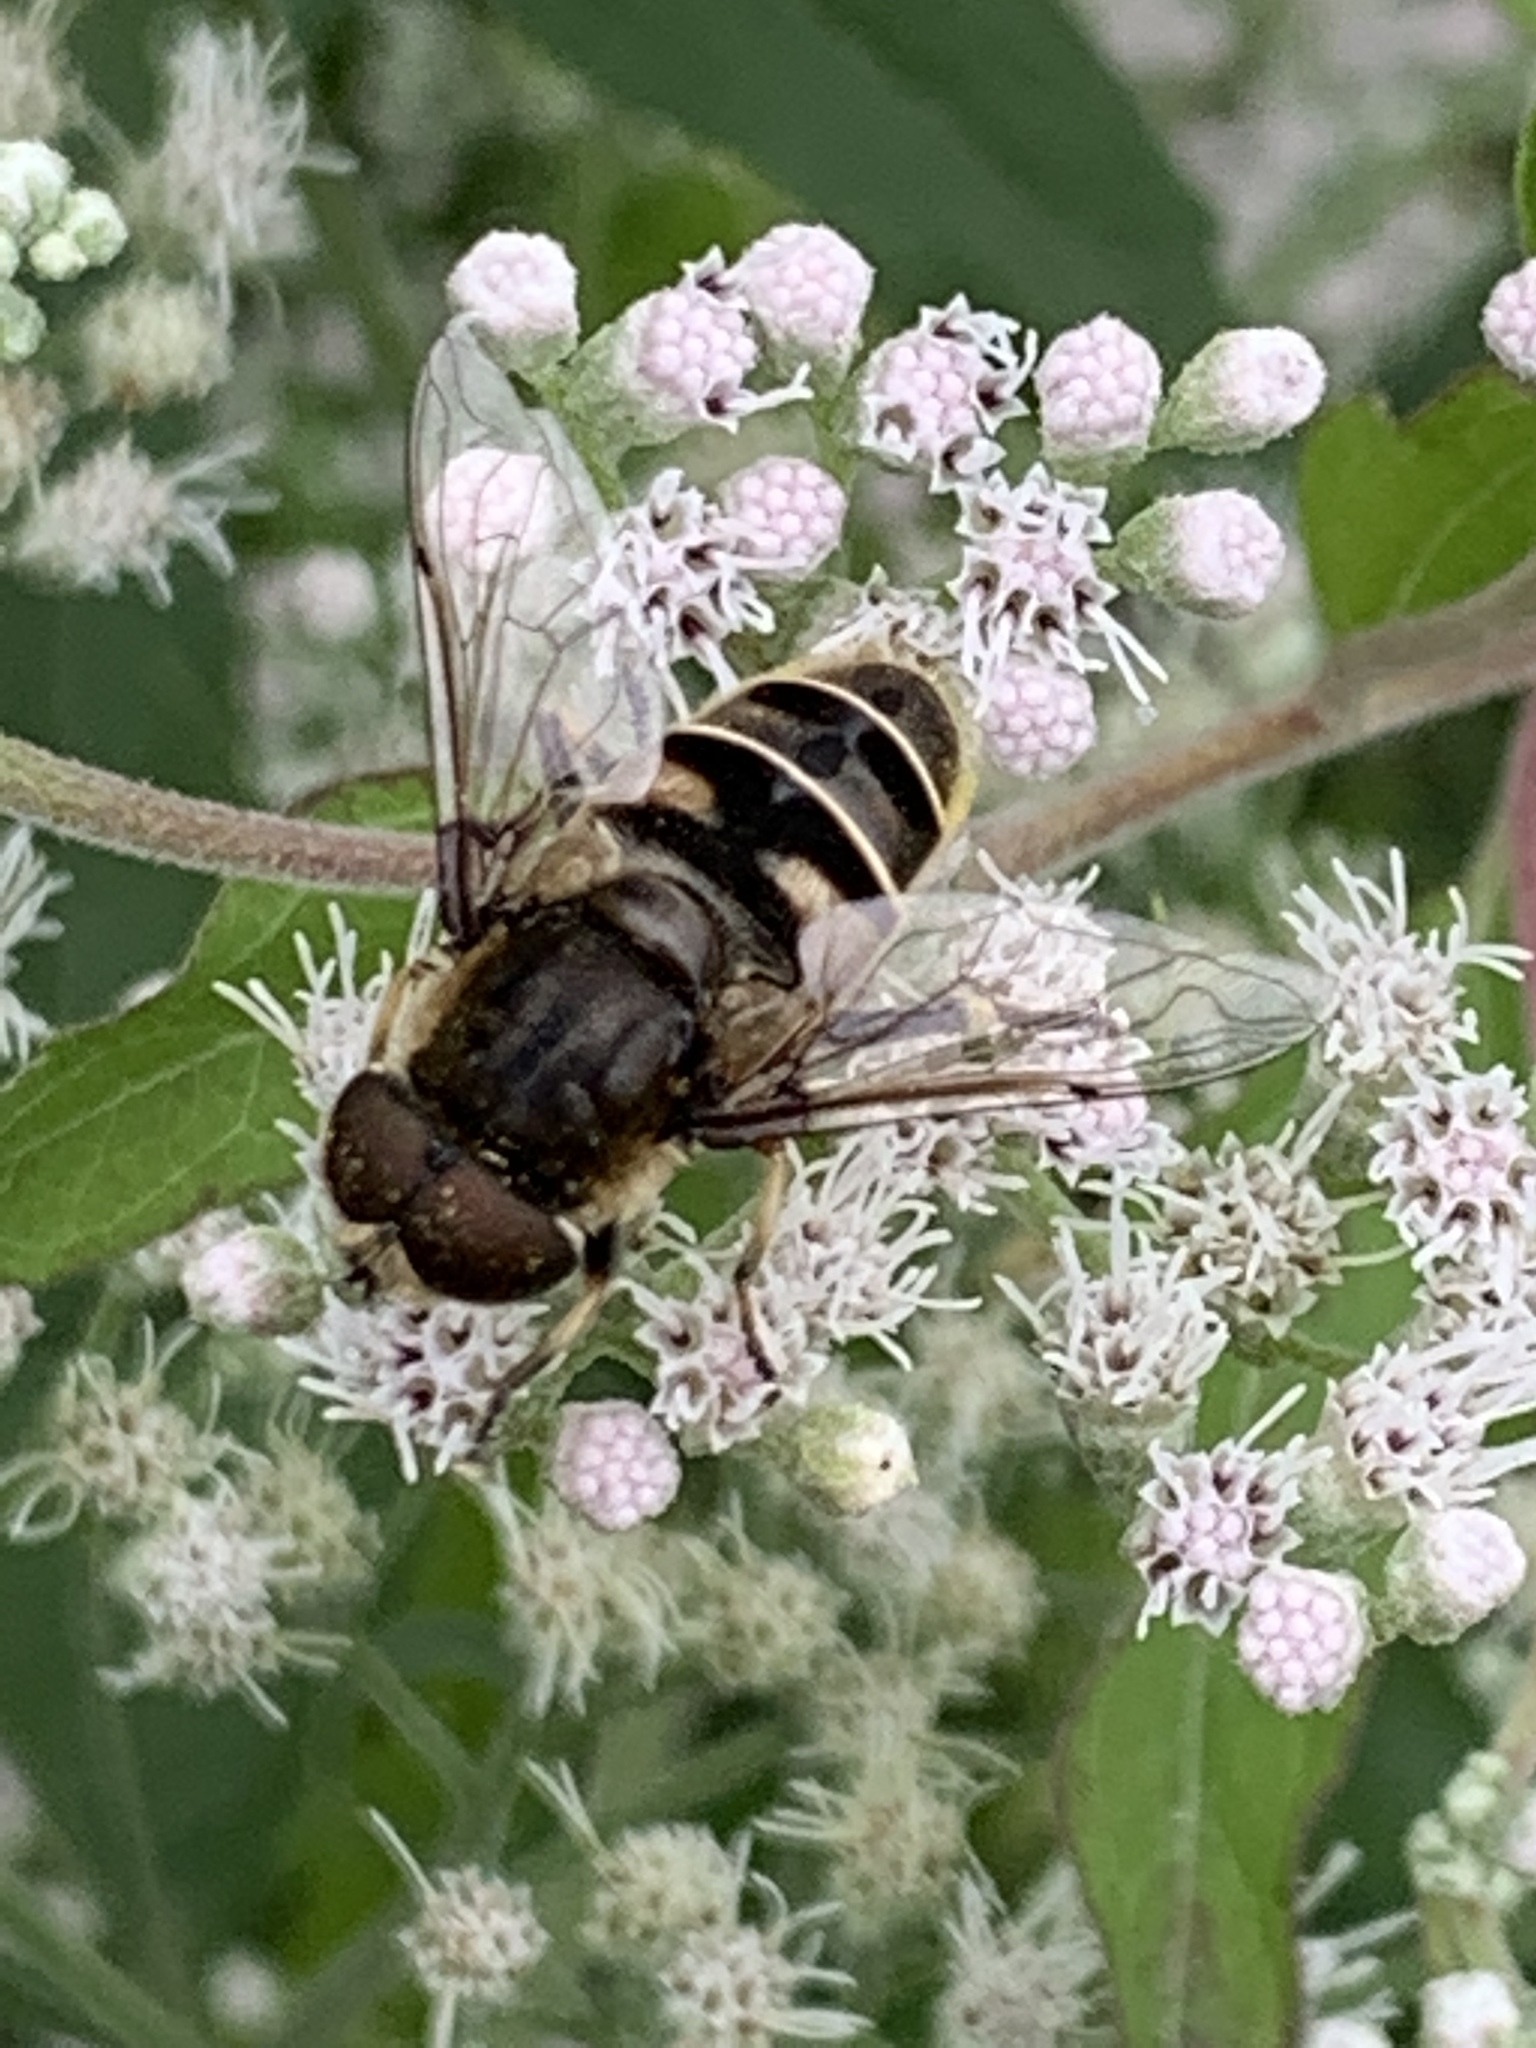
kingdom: Animalia
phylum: Arthropoda
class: Insecta
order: Diptera
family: Syrphidae
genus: Eristalis
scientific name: Eristalis dimidiata
